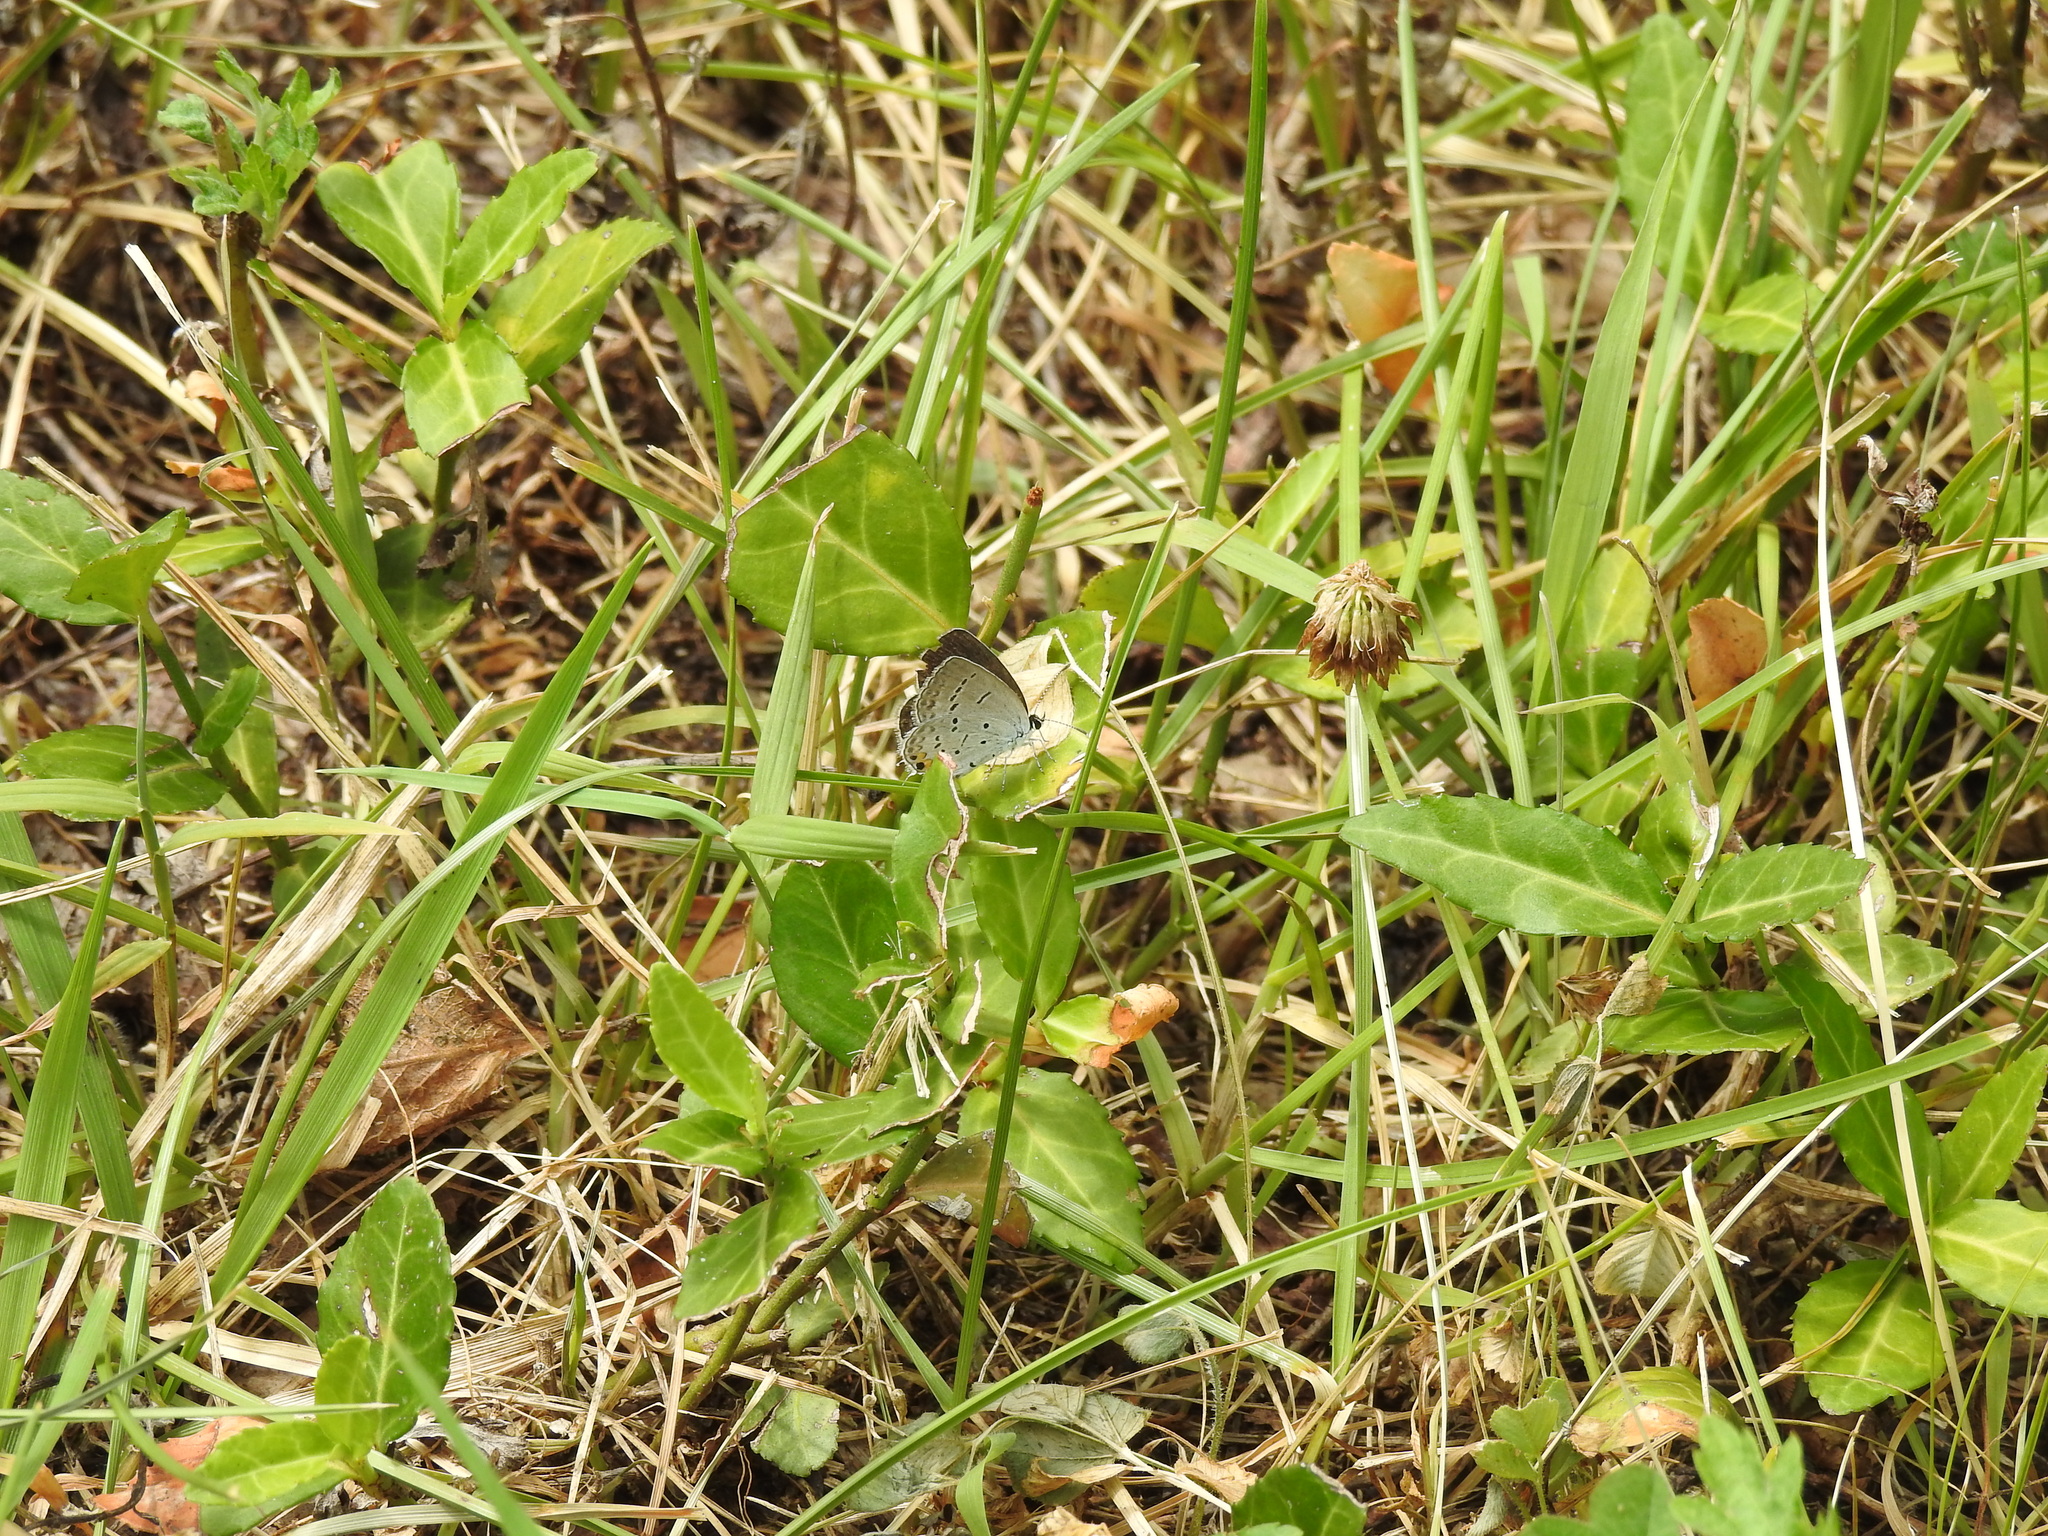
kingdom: Animalia
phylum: Arthropoda
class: Insecta
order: Lepidoptera
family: Lycaenidae
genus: Elkalyce
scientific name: Elkalyce comyntas
